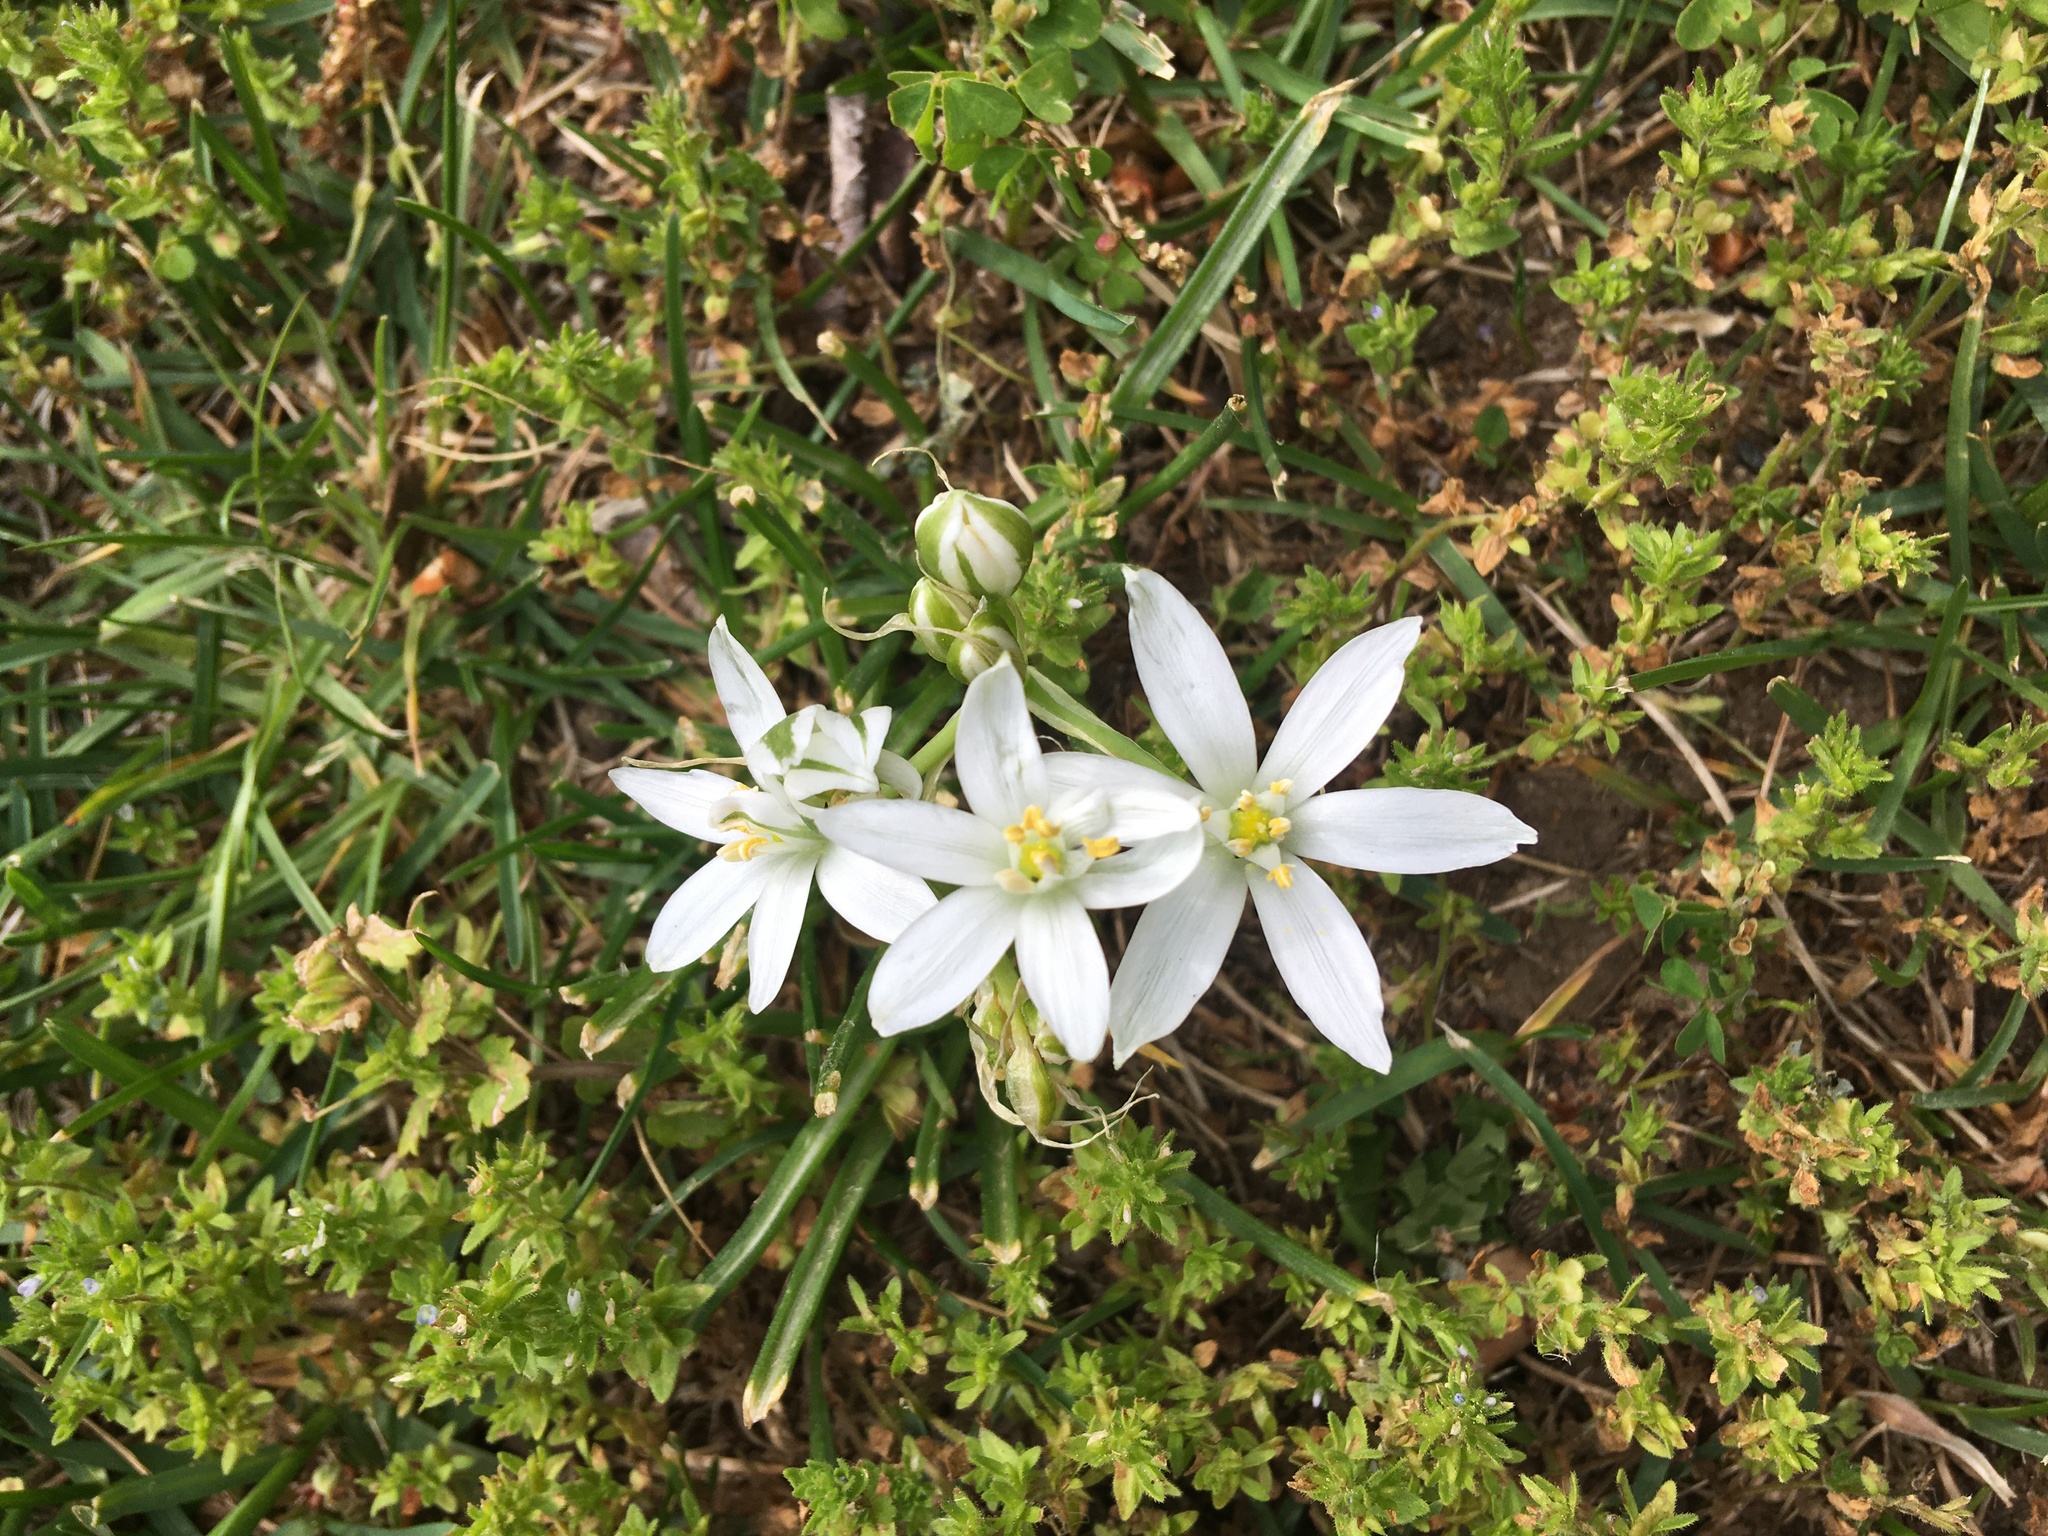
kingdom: Plantae
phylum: Tracheophyta
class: Liliopsida
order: Asparagales
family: Asparagaceae
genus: Ornithogalum
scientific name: Ornithogalum umbellatum
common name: Garden star-of-bethlehem
